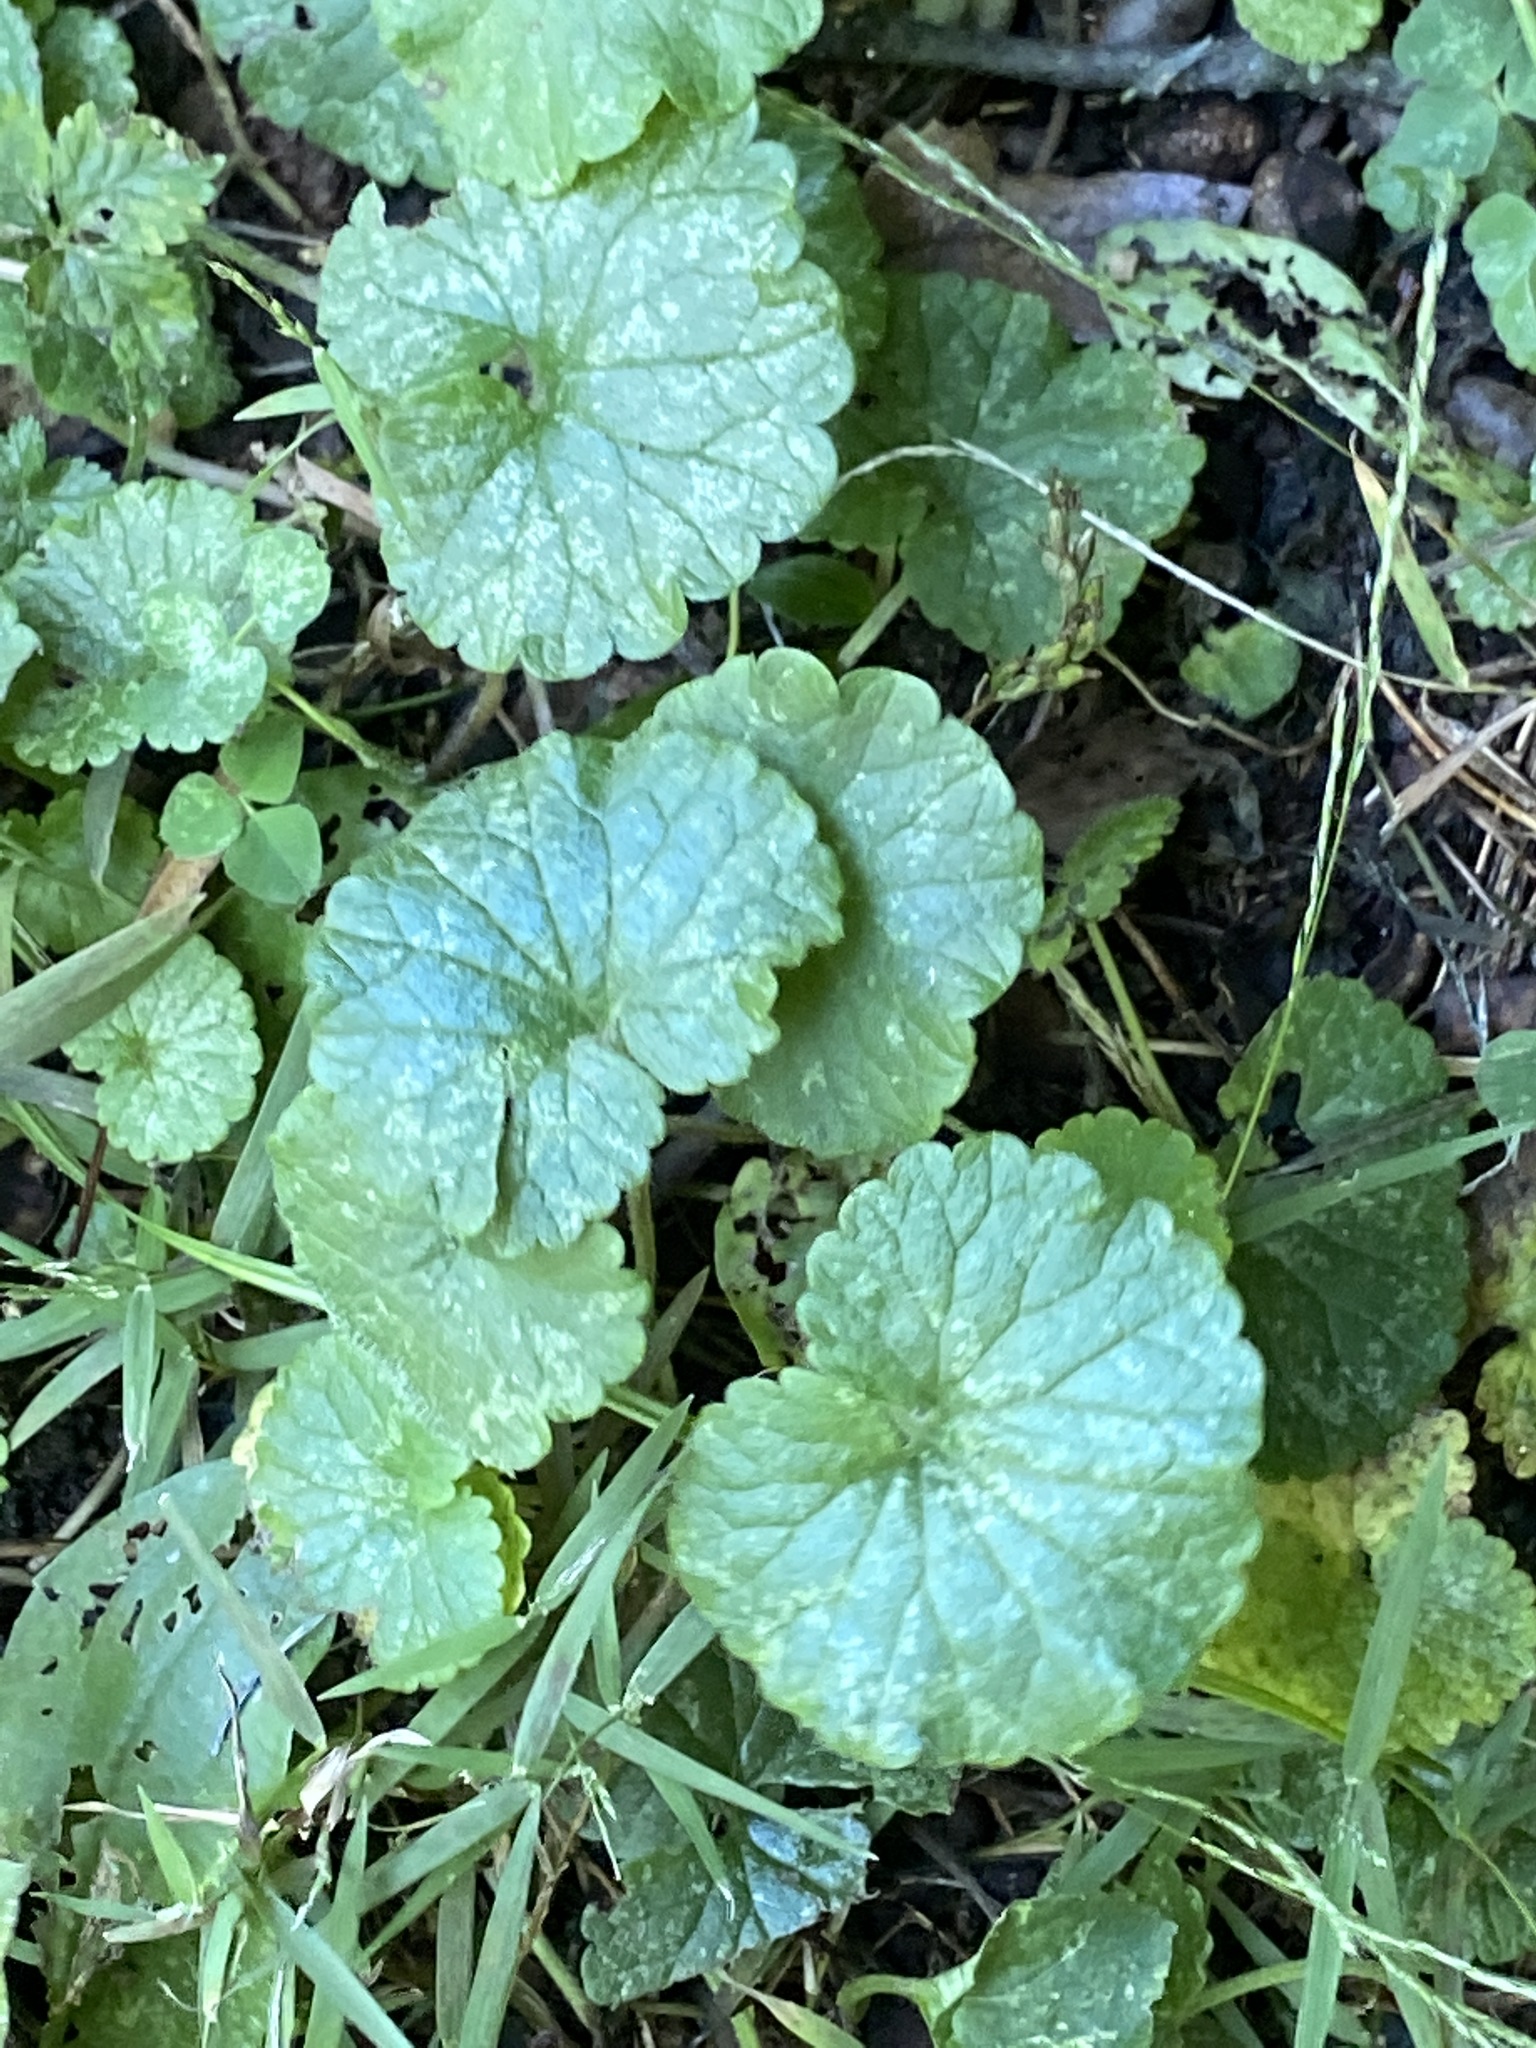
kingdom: Plantae
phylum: Tracheophyta
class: Magnoliopsida
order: Lamiales
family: Lamiaceae
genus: Glechoma
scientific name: Glechoma hederacea
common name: Ground ivy
